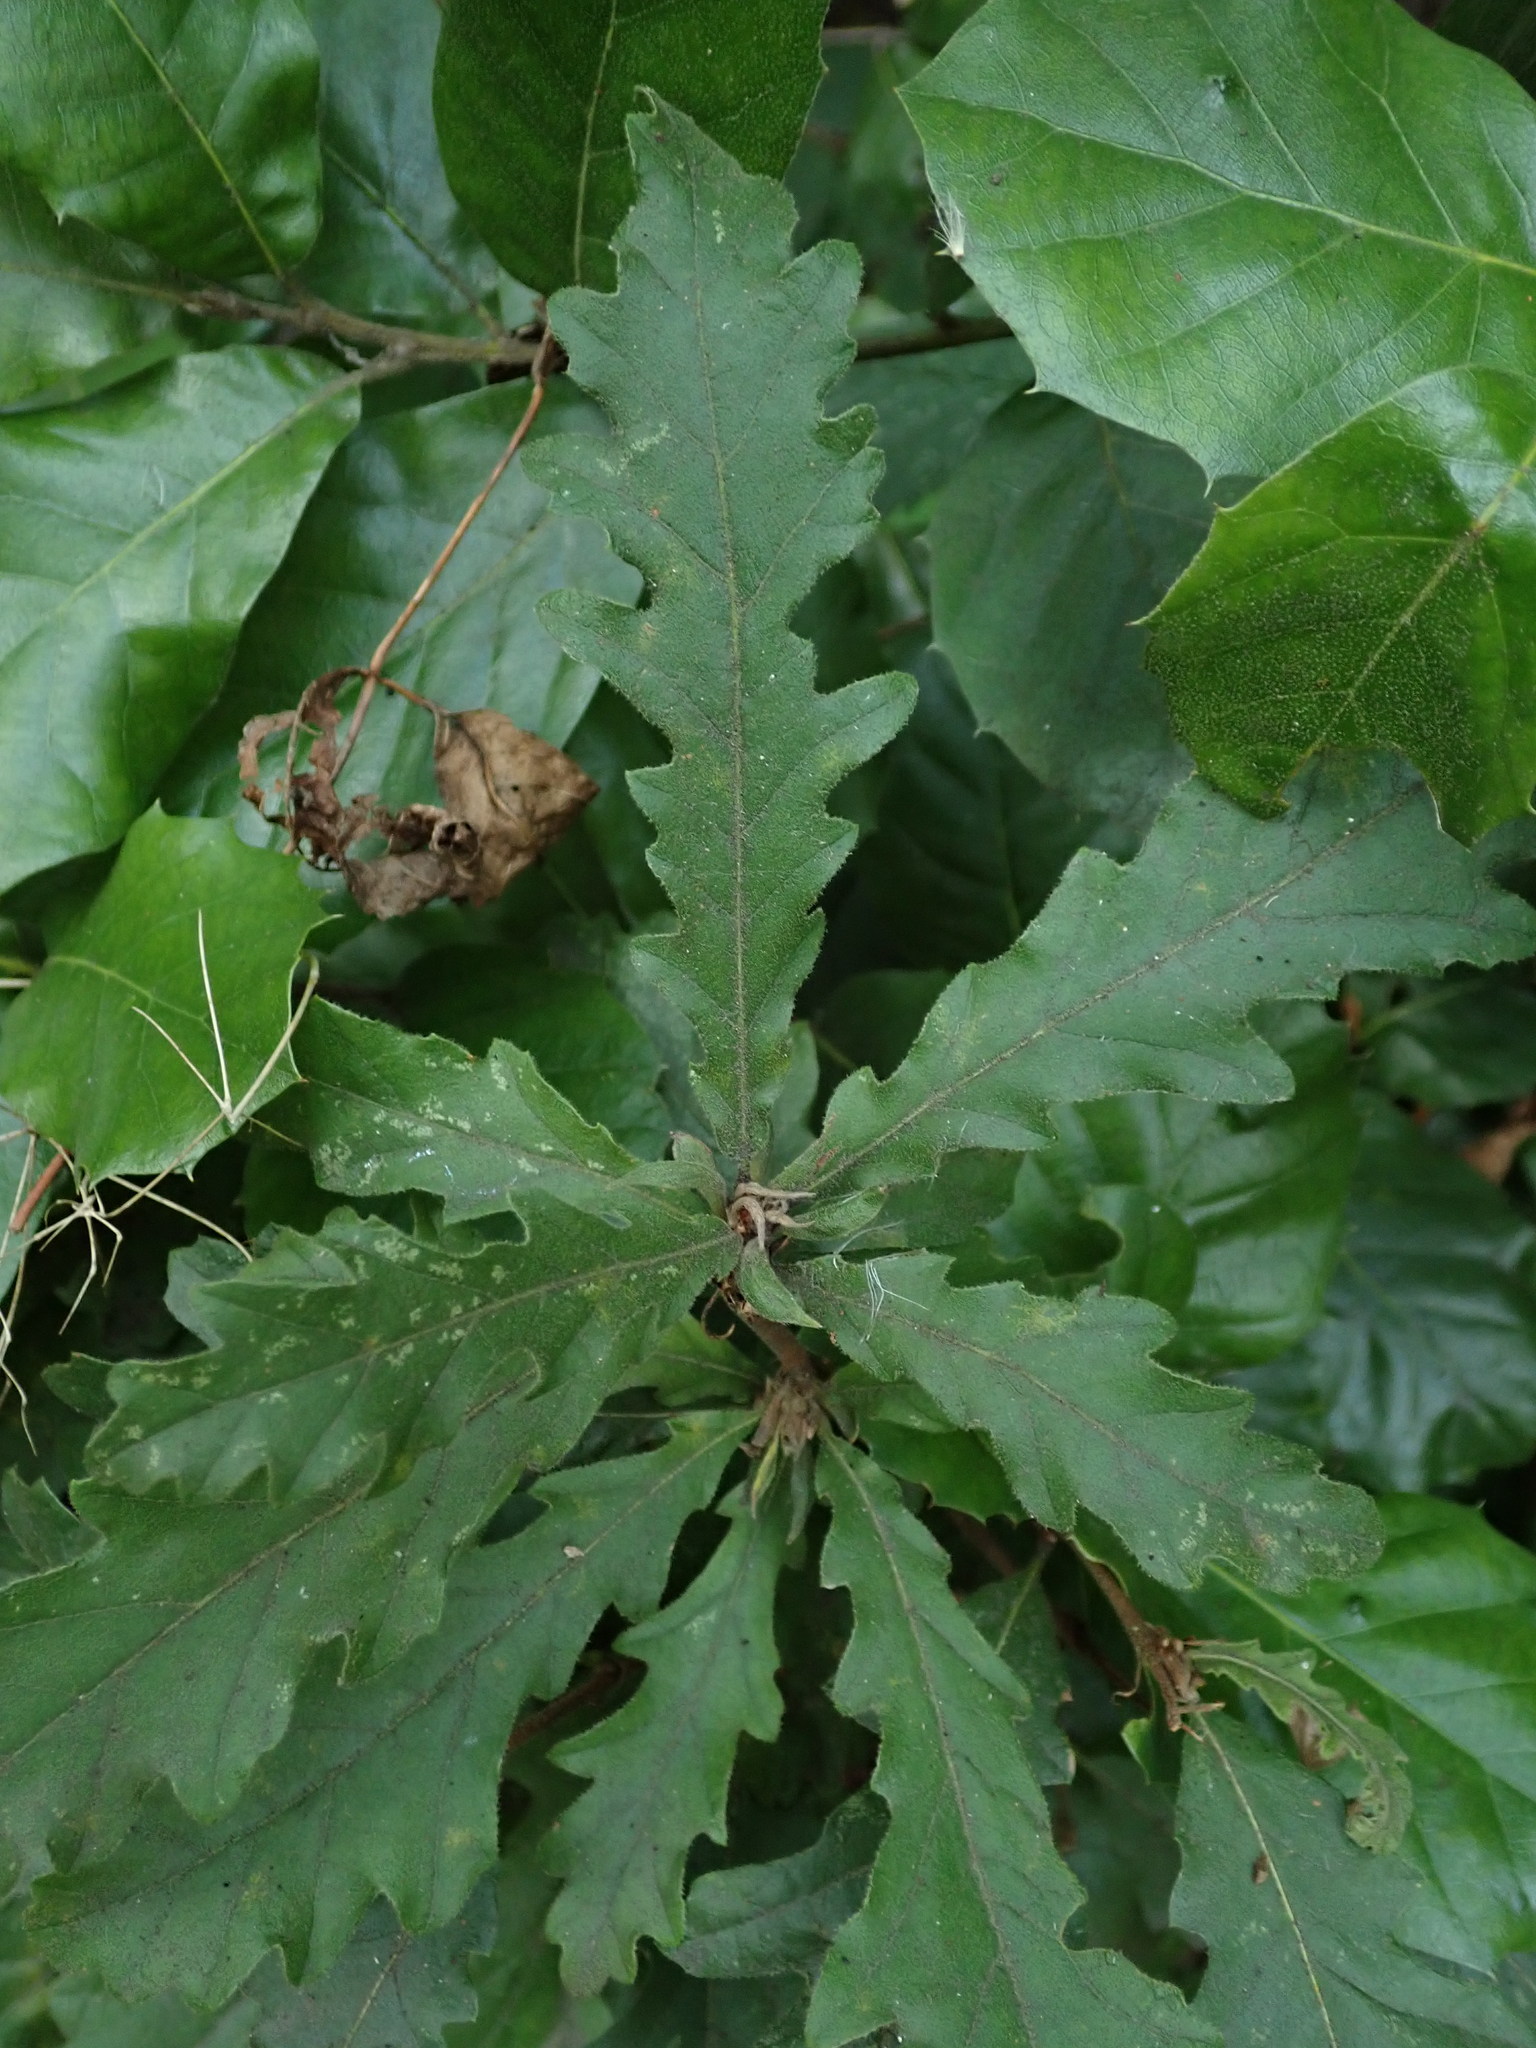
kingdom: Plantae
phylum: Tracheophyta
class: Magnoliopsida
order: Fagales
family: Fagaceae
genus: Quercus
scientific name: Quercus cerris
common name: Turkey oak
